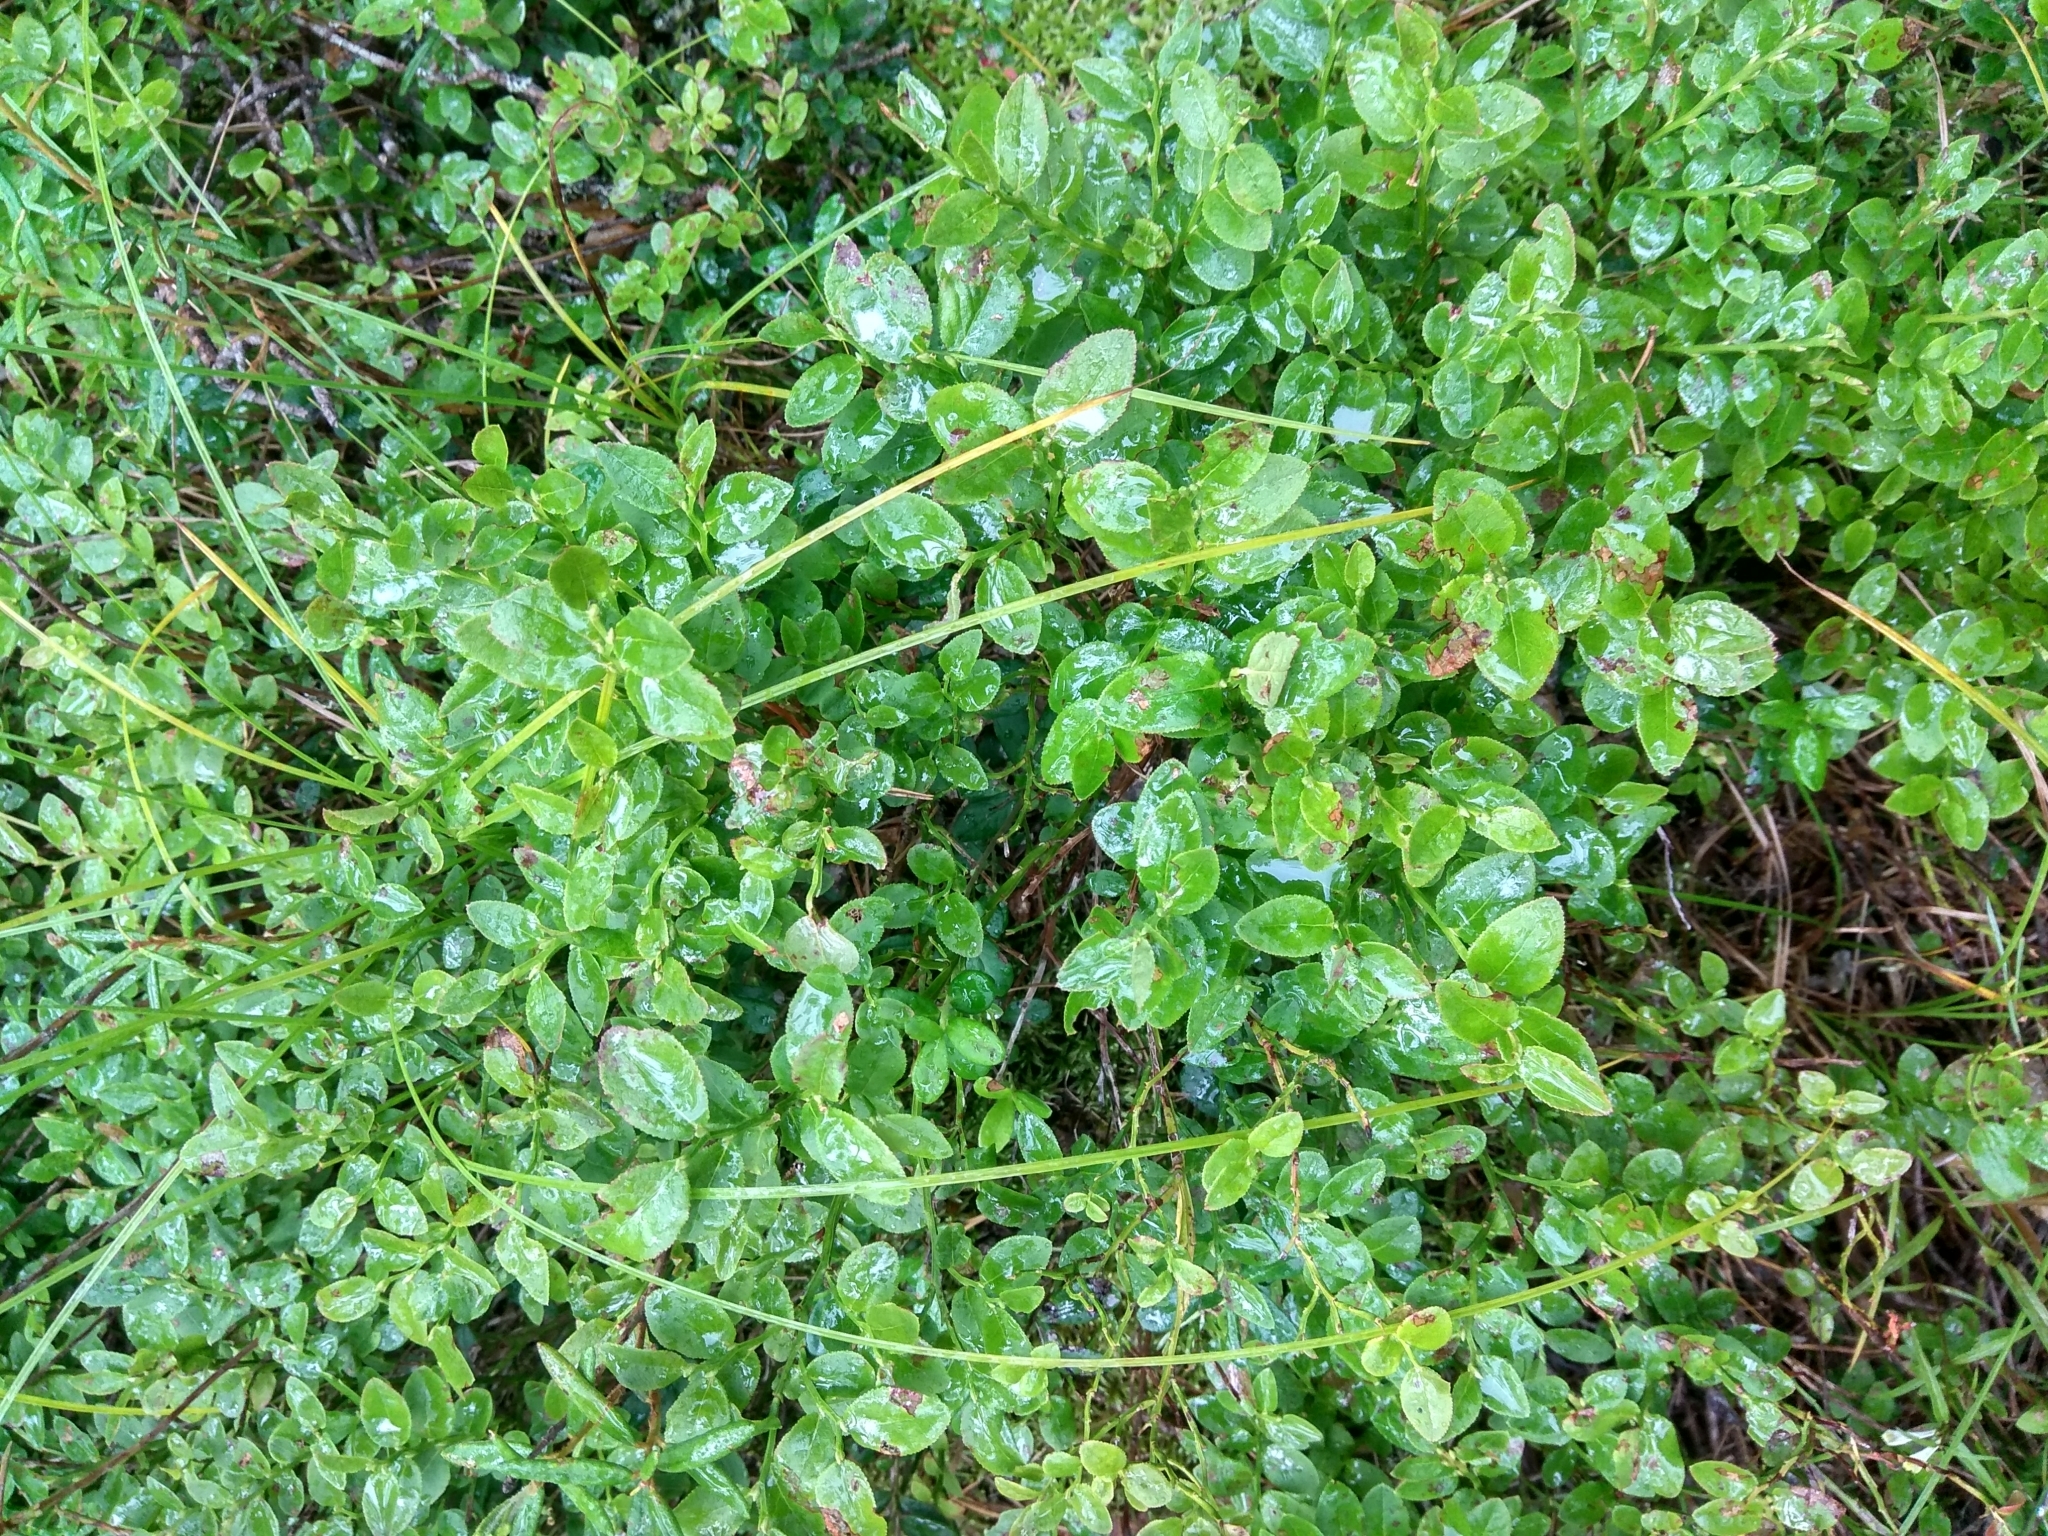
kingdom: Plantae
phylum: Tracheophyta
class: Magnoliopsida
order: Ericales
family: Ericaceae
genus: Vaccinium
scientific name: Vaccinium myrtillus
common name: Bilberry
